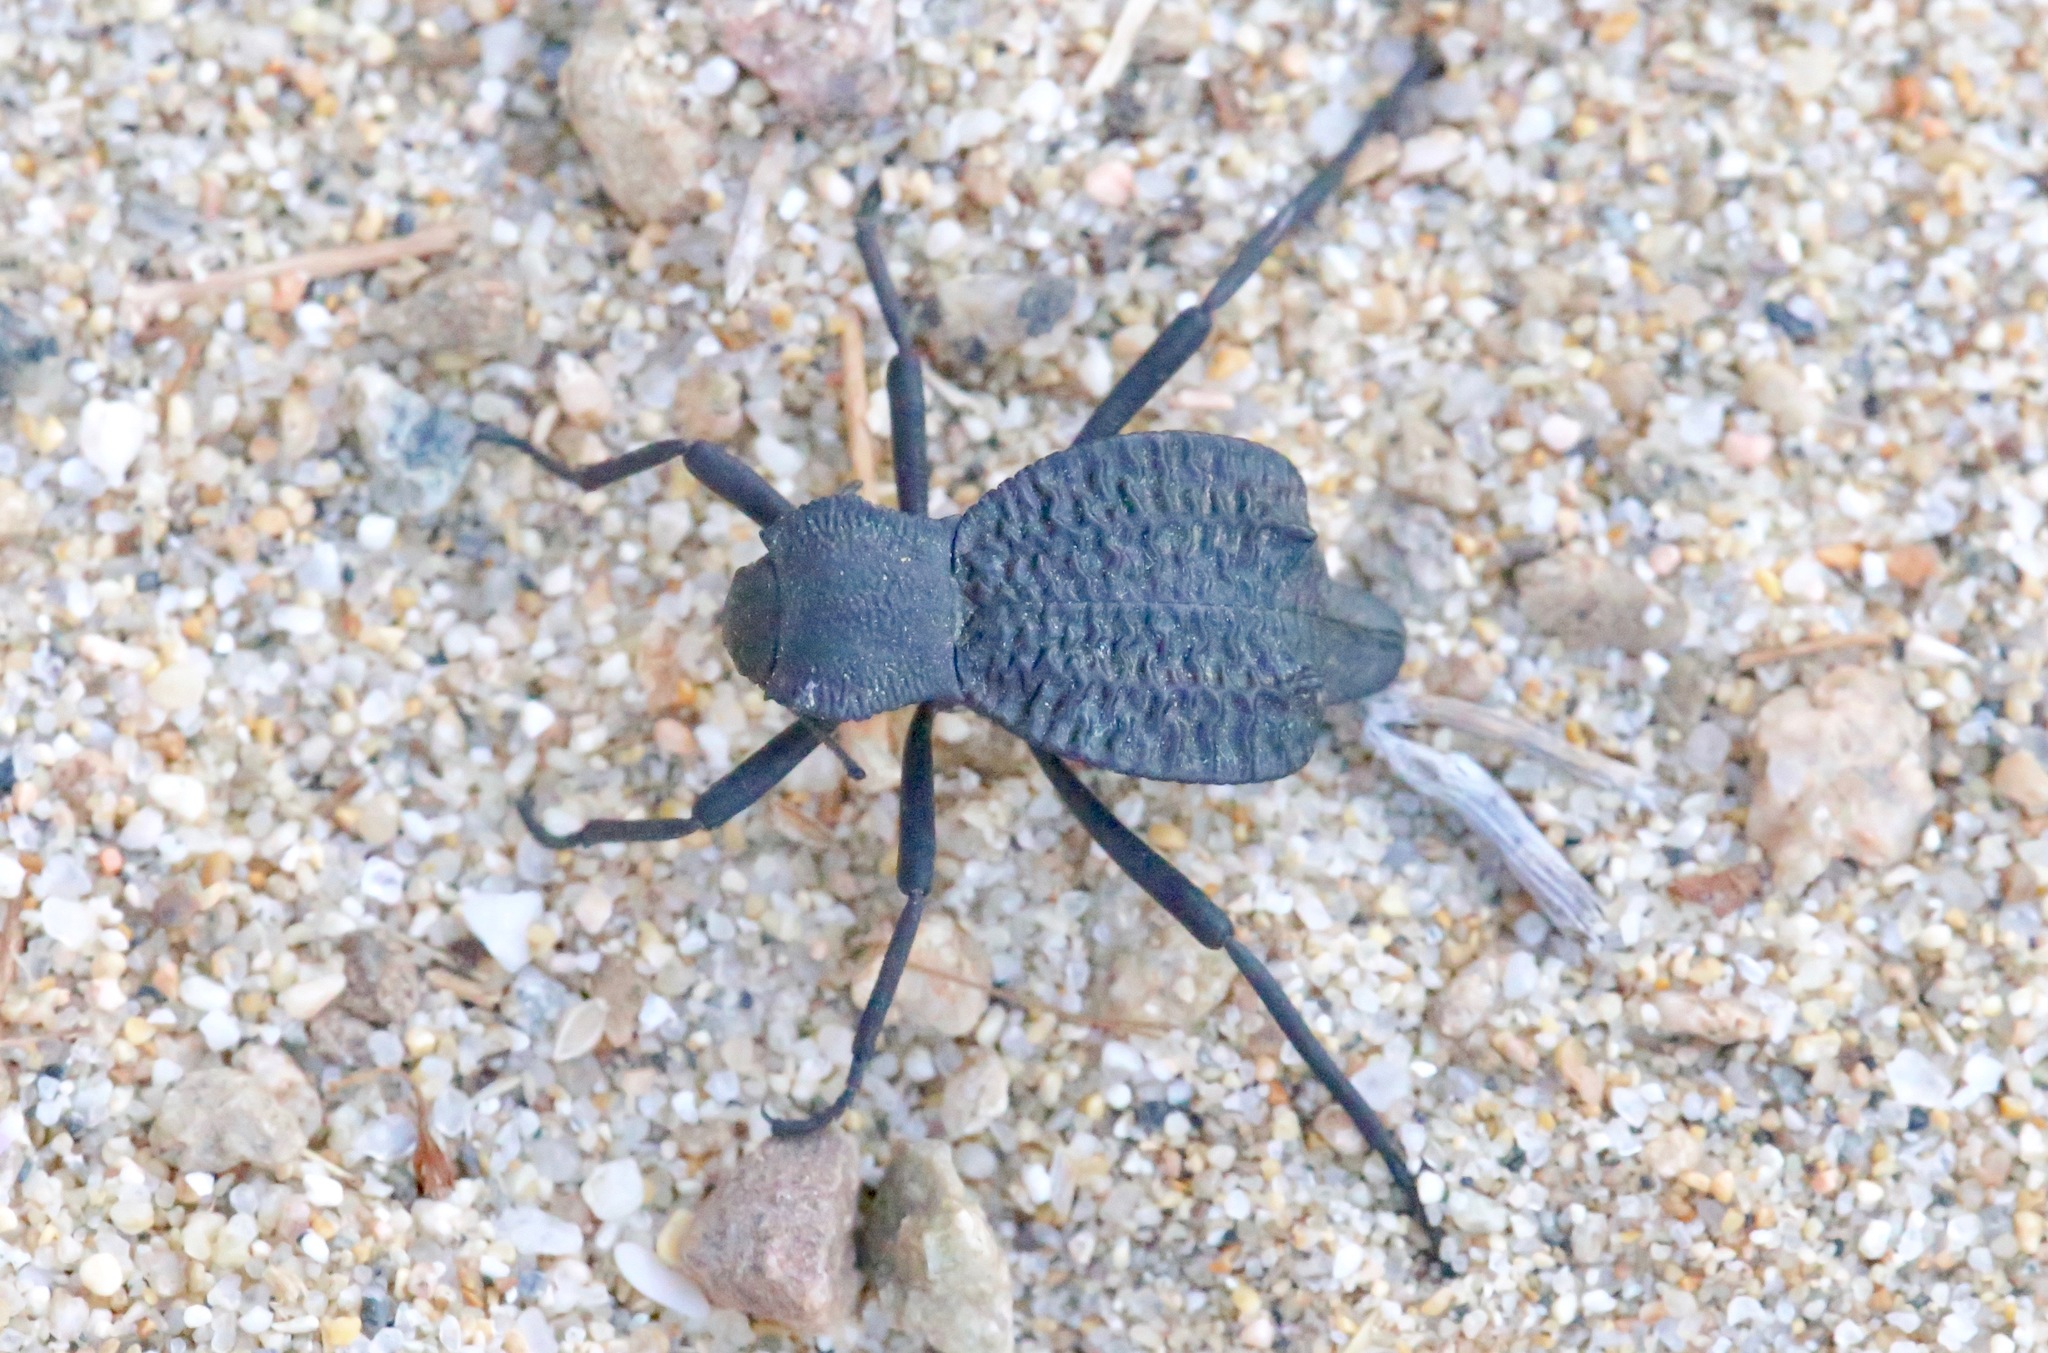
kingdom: Animalia
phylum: Arthropoda
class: Insecta
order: Coleoptera
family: Tenebrionidae
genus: Philolithus
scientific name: Philolithus aegrotus
